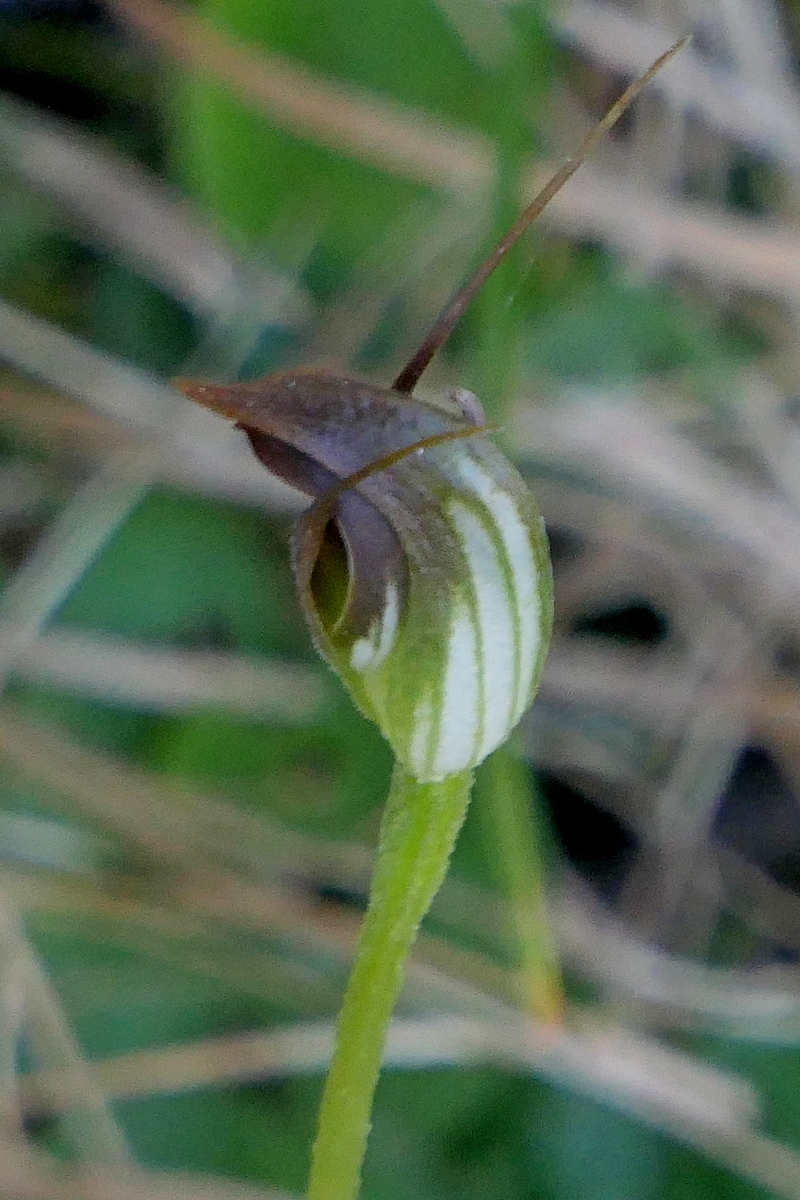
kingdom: Plantae
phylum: Tracheophyta
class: Liliopsida
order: Asparagales
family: Orchidaceae
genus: Pterostylis
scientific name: Pterostylis pedunculata
